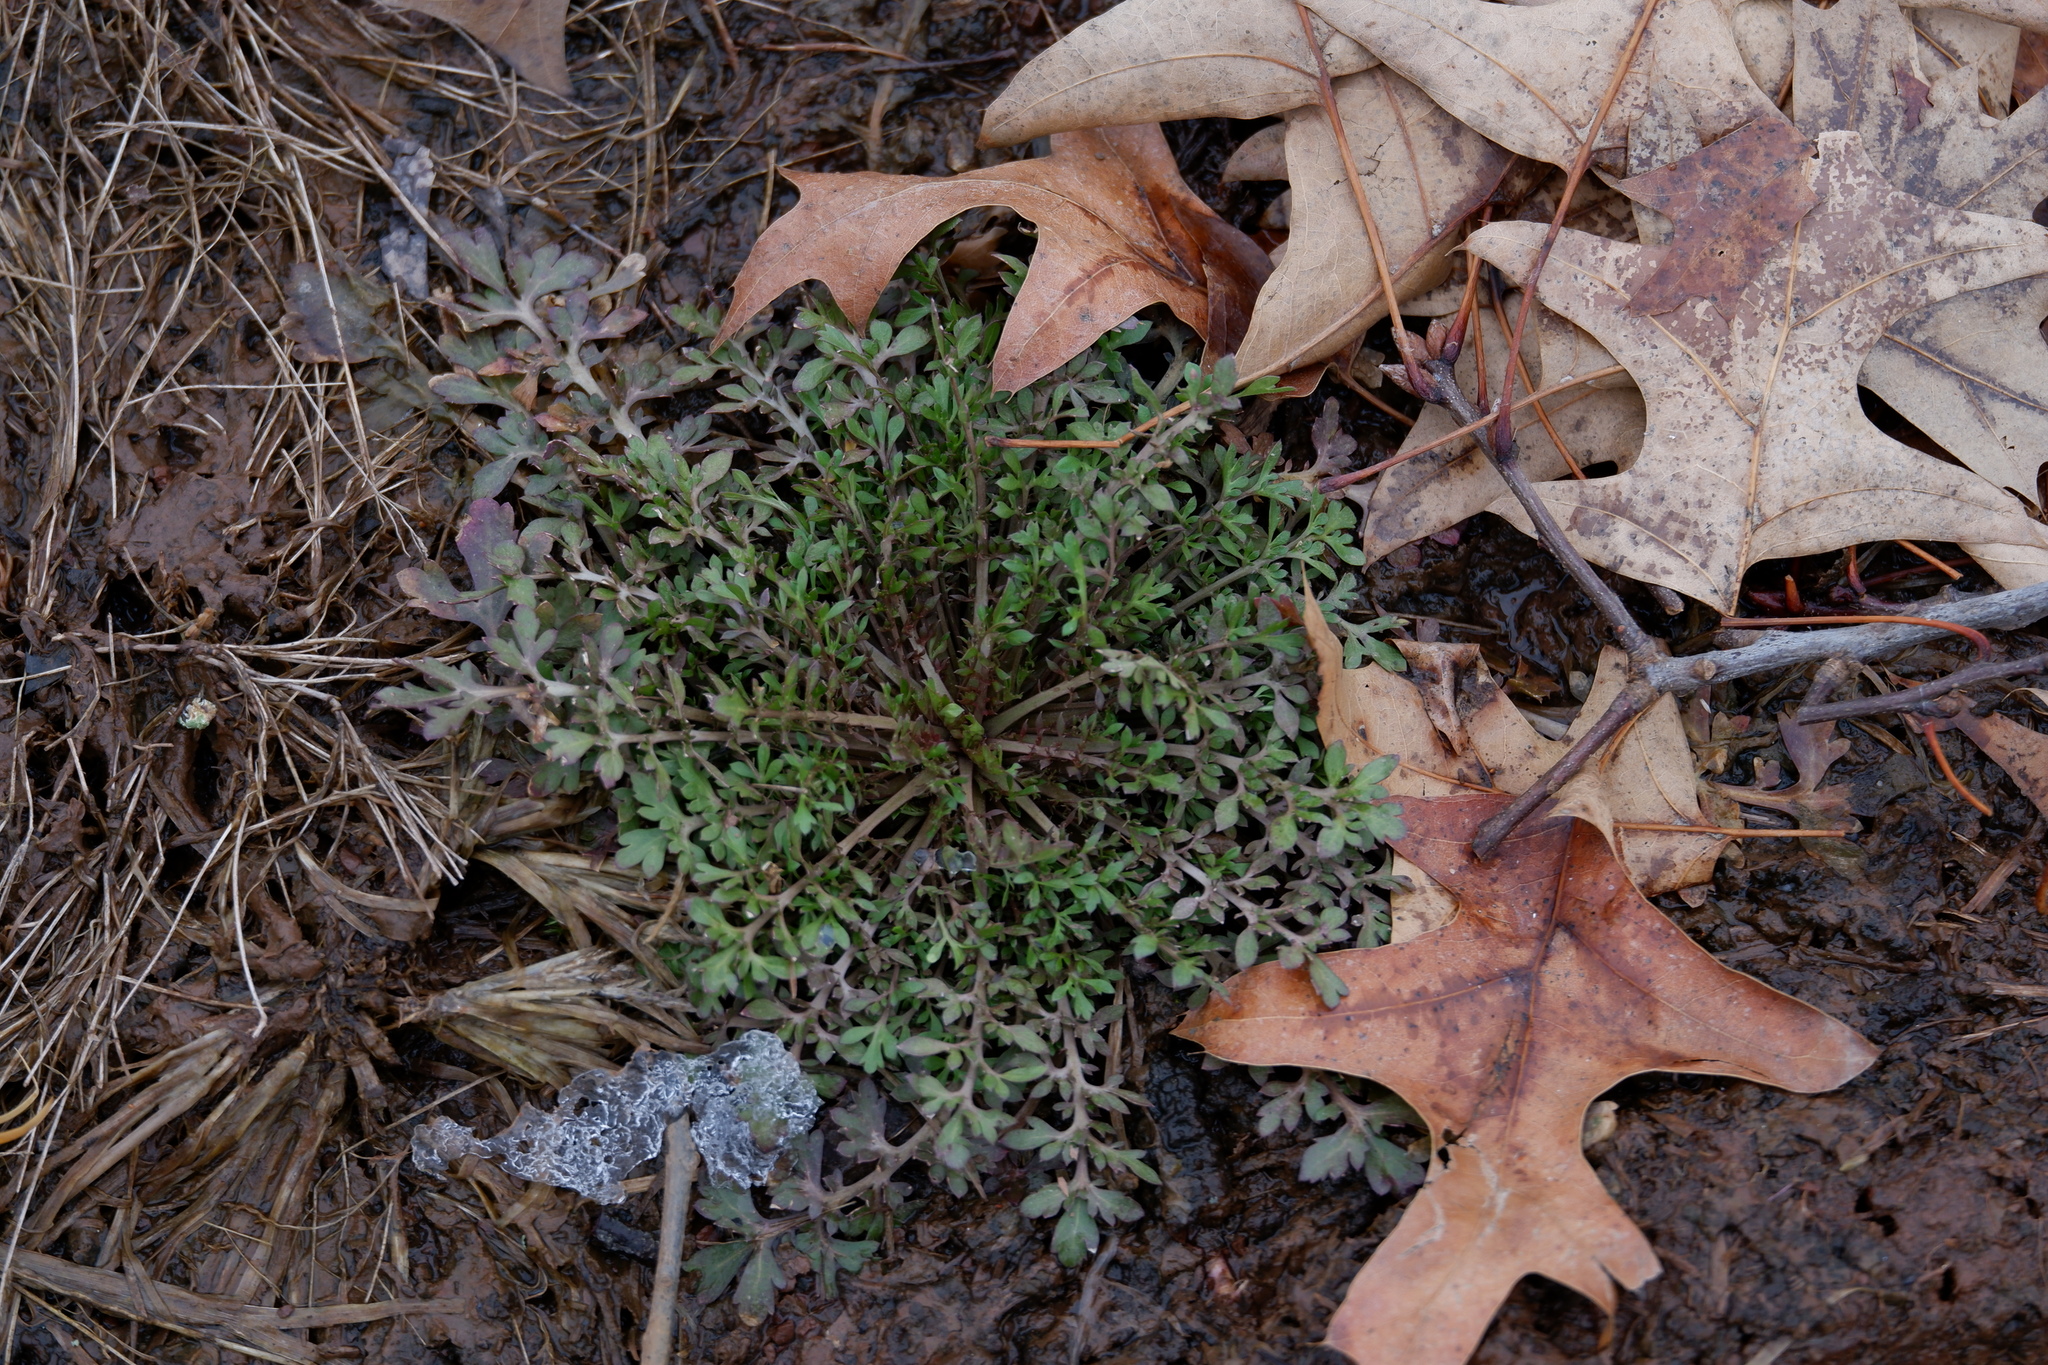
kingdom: Plantae
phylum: Tracheophyta
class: Magnoliopsida
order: Brassicales
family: Brassicaceae
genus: Lepidium
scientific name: Lepidium didymum
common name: Lesser swinecress
